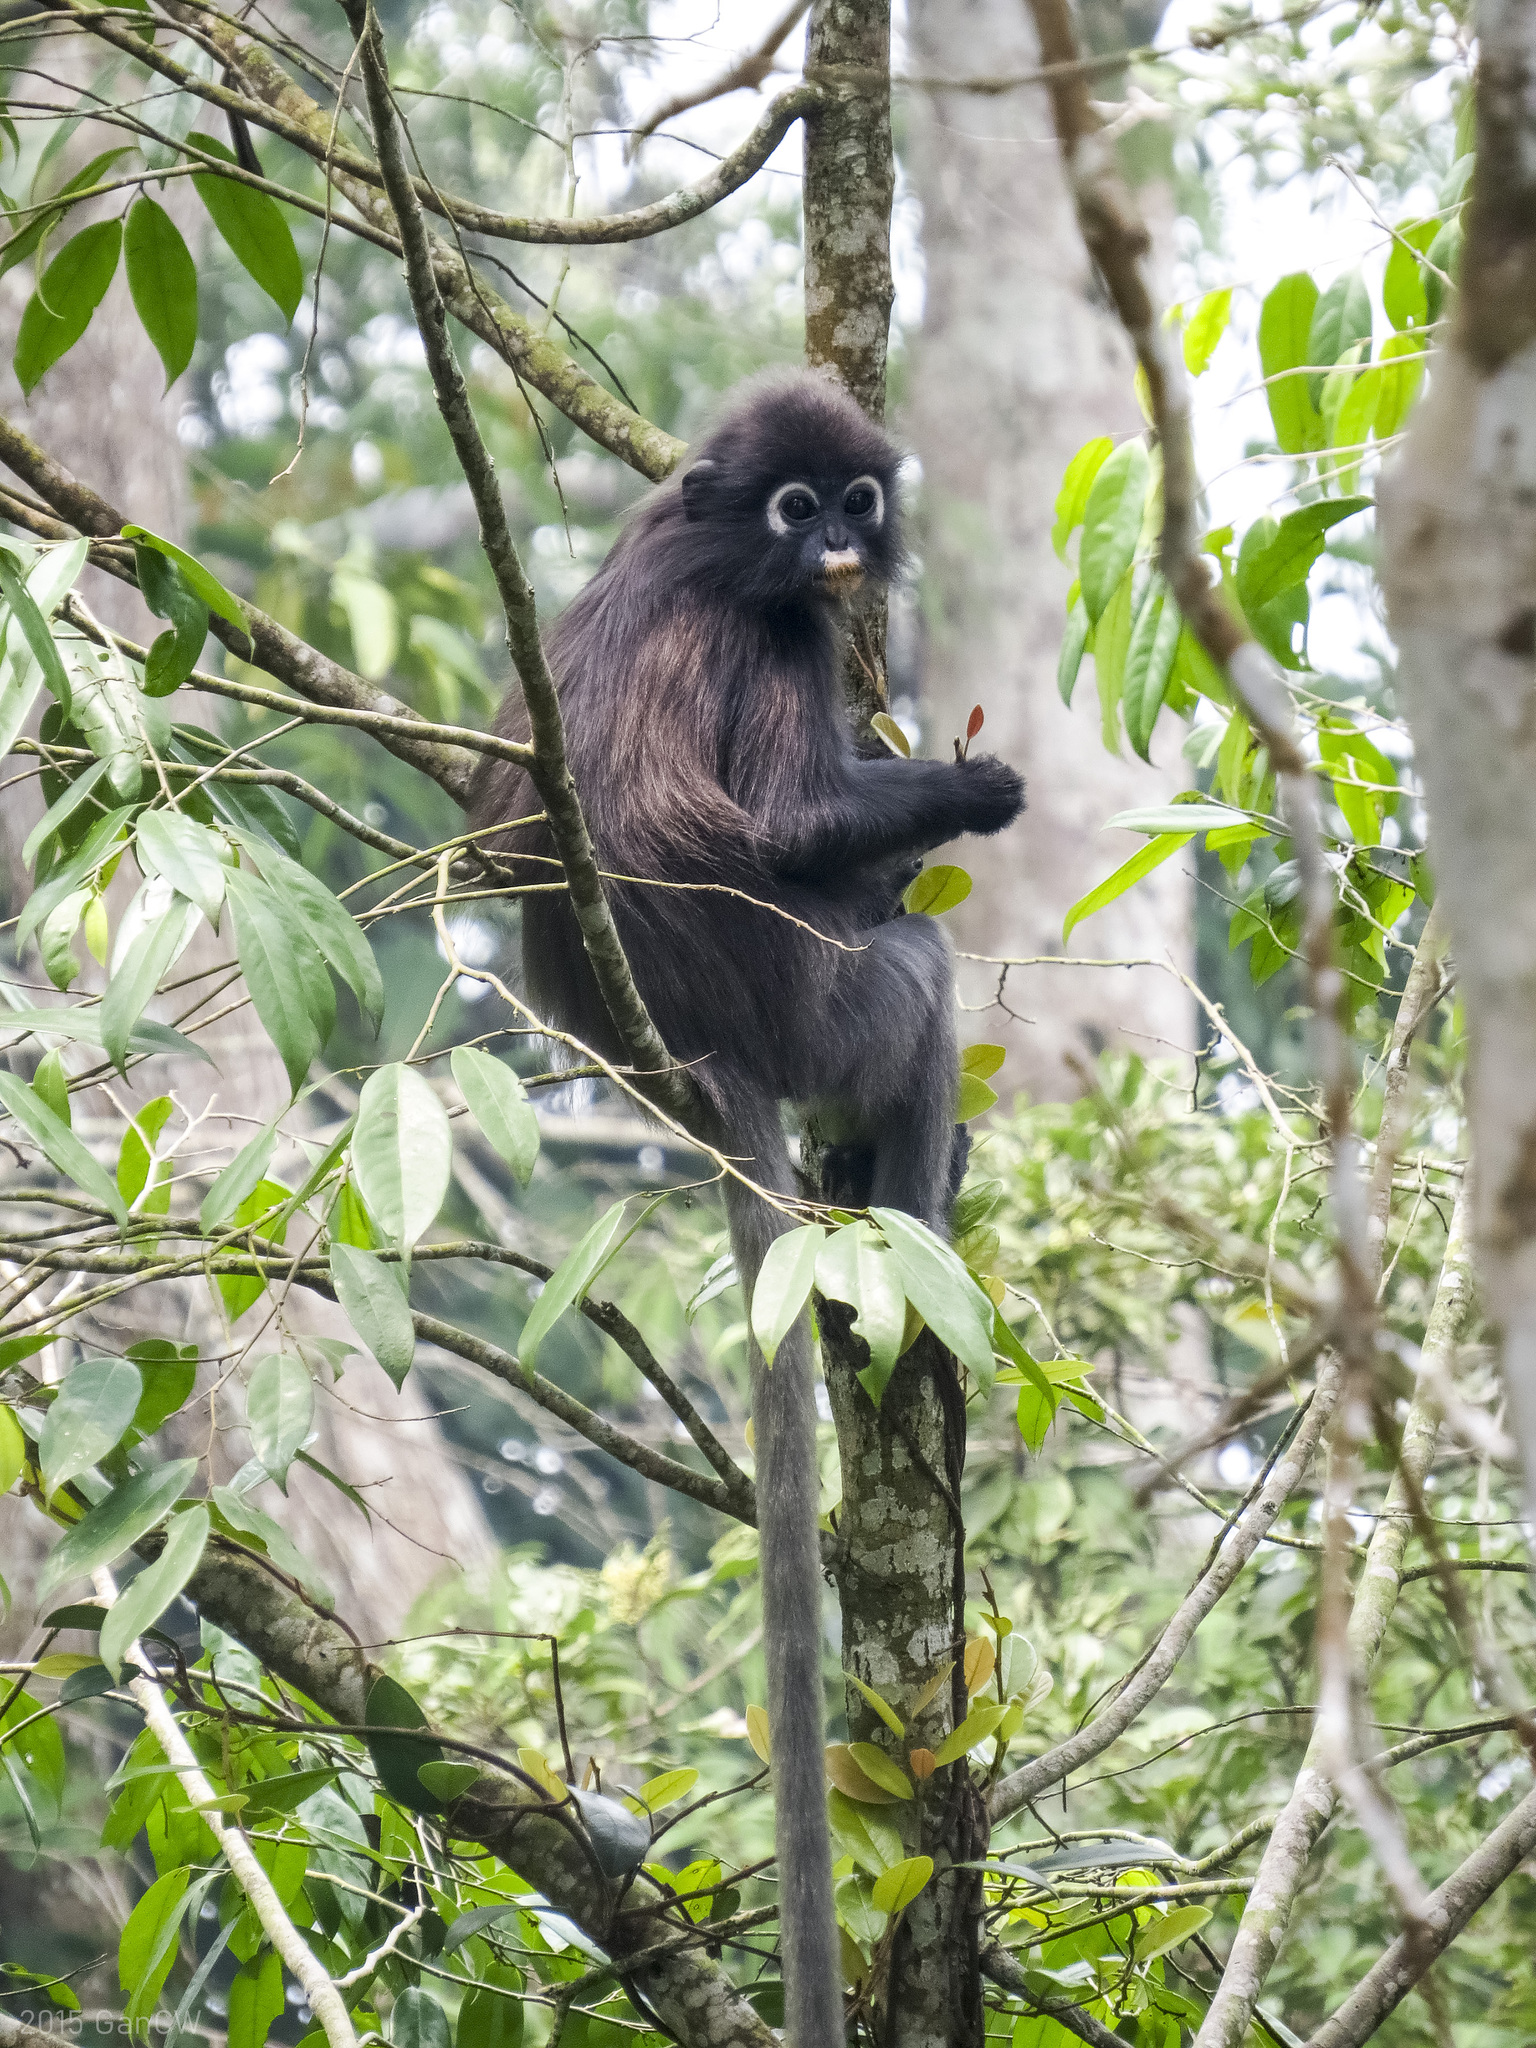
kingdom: Animalia
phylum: Chordata
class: Mammalia
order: Primates
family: Cercopithecidae
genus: Trachypithecus
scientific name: Trachypithecus obscurus
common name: Dusky leaf-monkey
